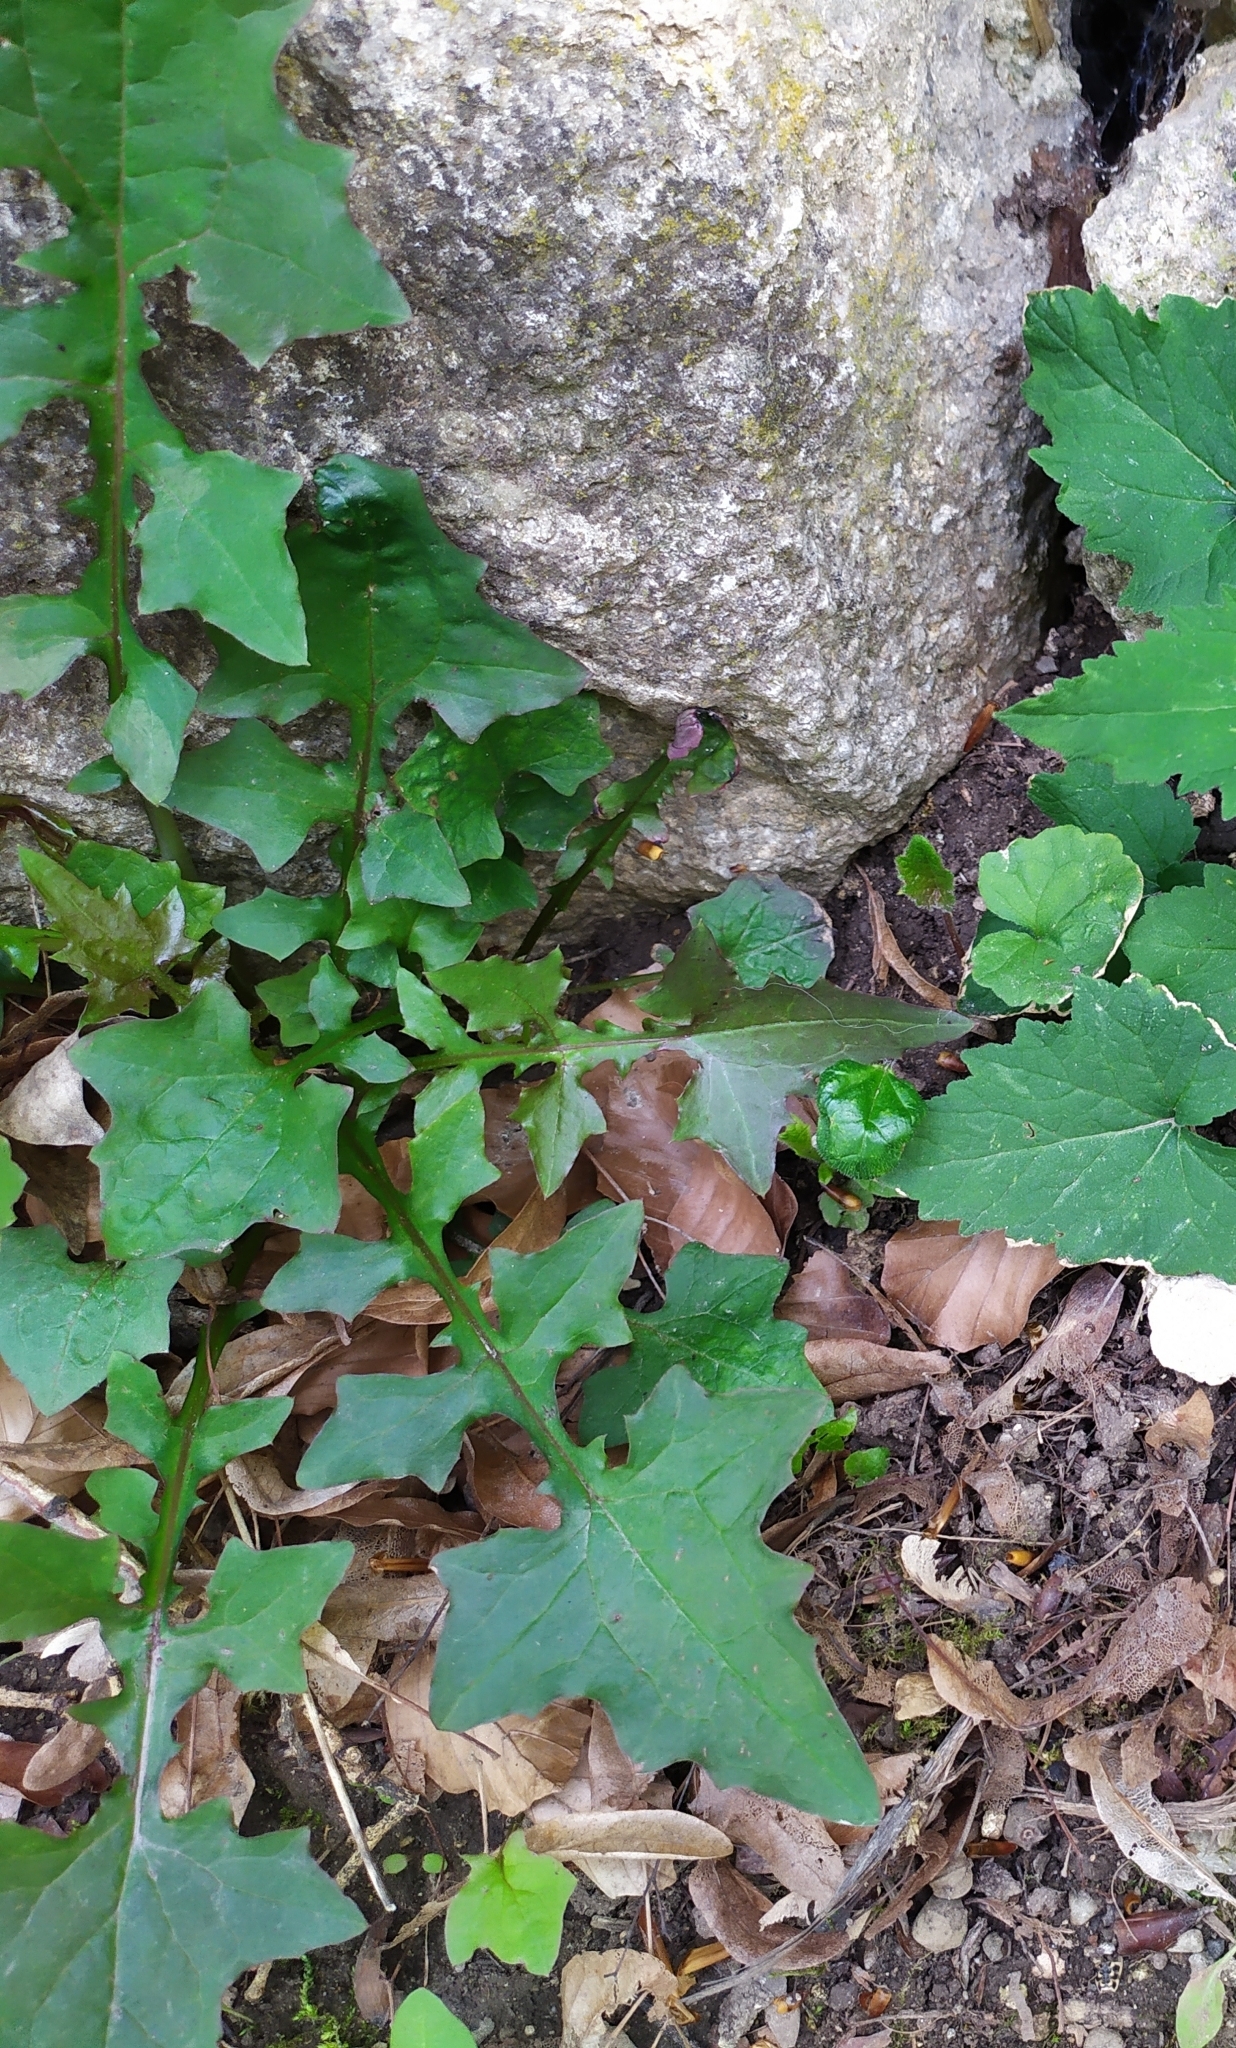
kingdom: Plantae
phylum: Tracheophyta
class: Magnoliopsida
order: Asterales
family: Asteraceae
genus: Mycelis
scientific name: Mycelis muralis
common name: Wall lettuce
